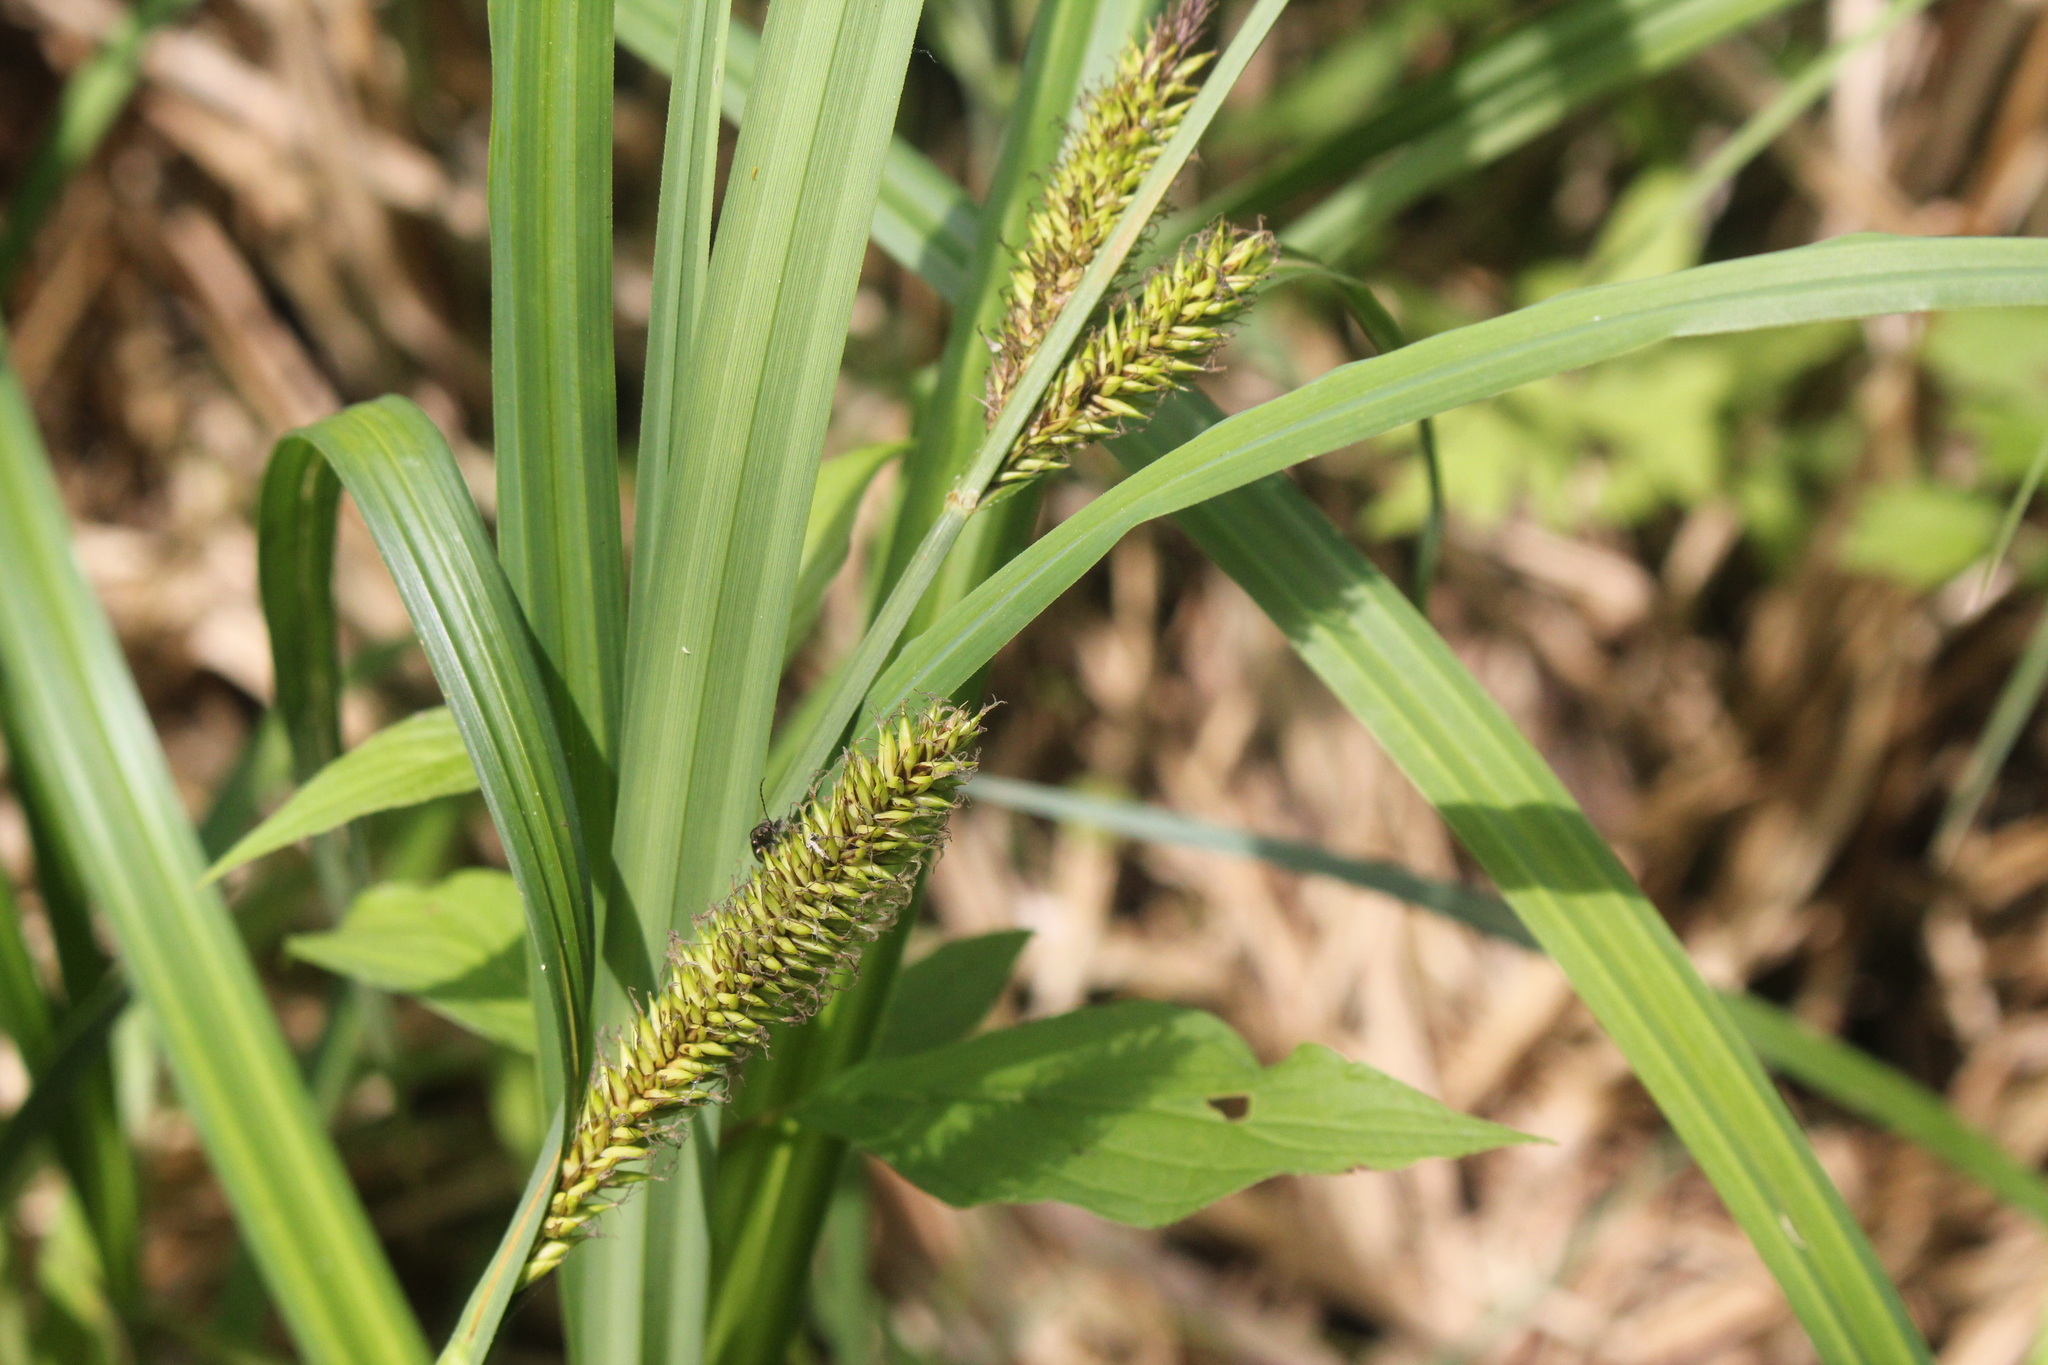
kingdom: Plantae
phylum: Tracheophyta
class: Liliopsida
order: Poales
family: Cyperaceae
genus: Carex
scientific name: Carex lacustris
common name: Common lake sedge
